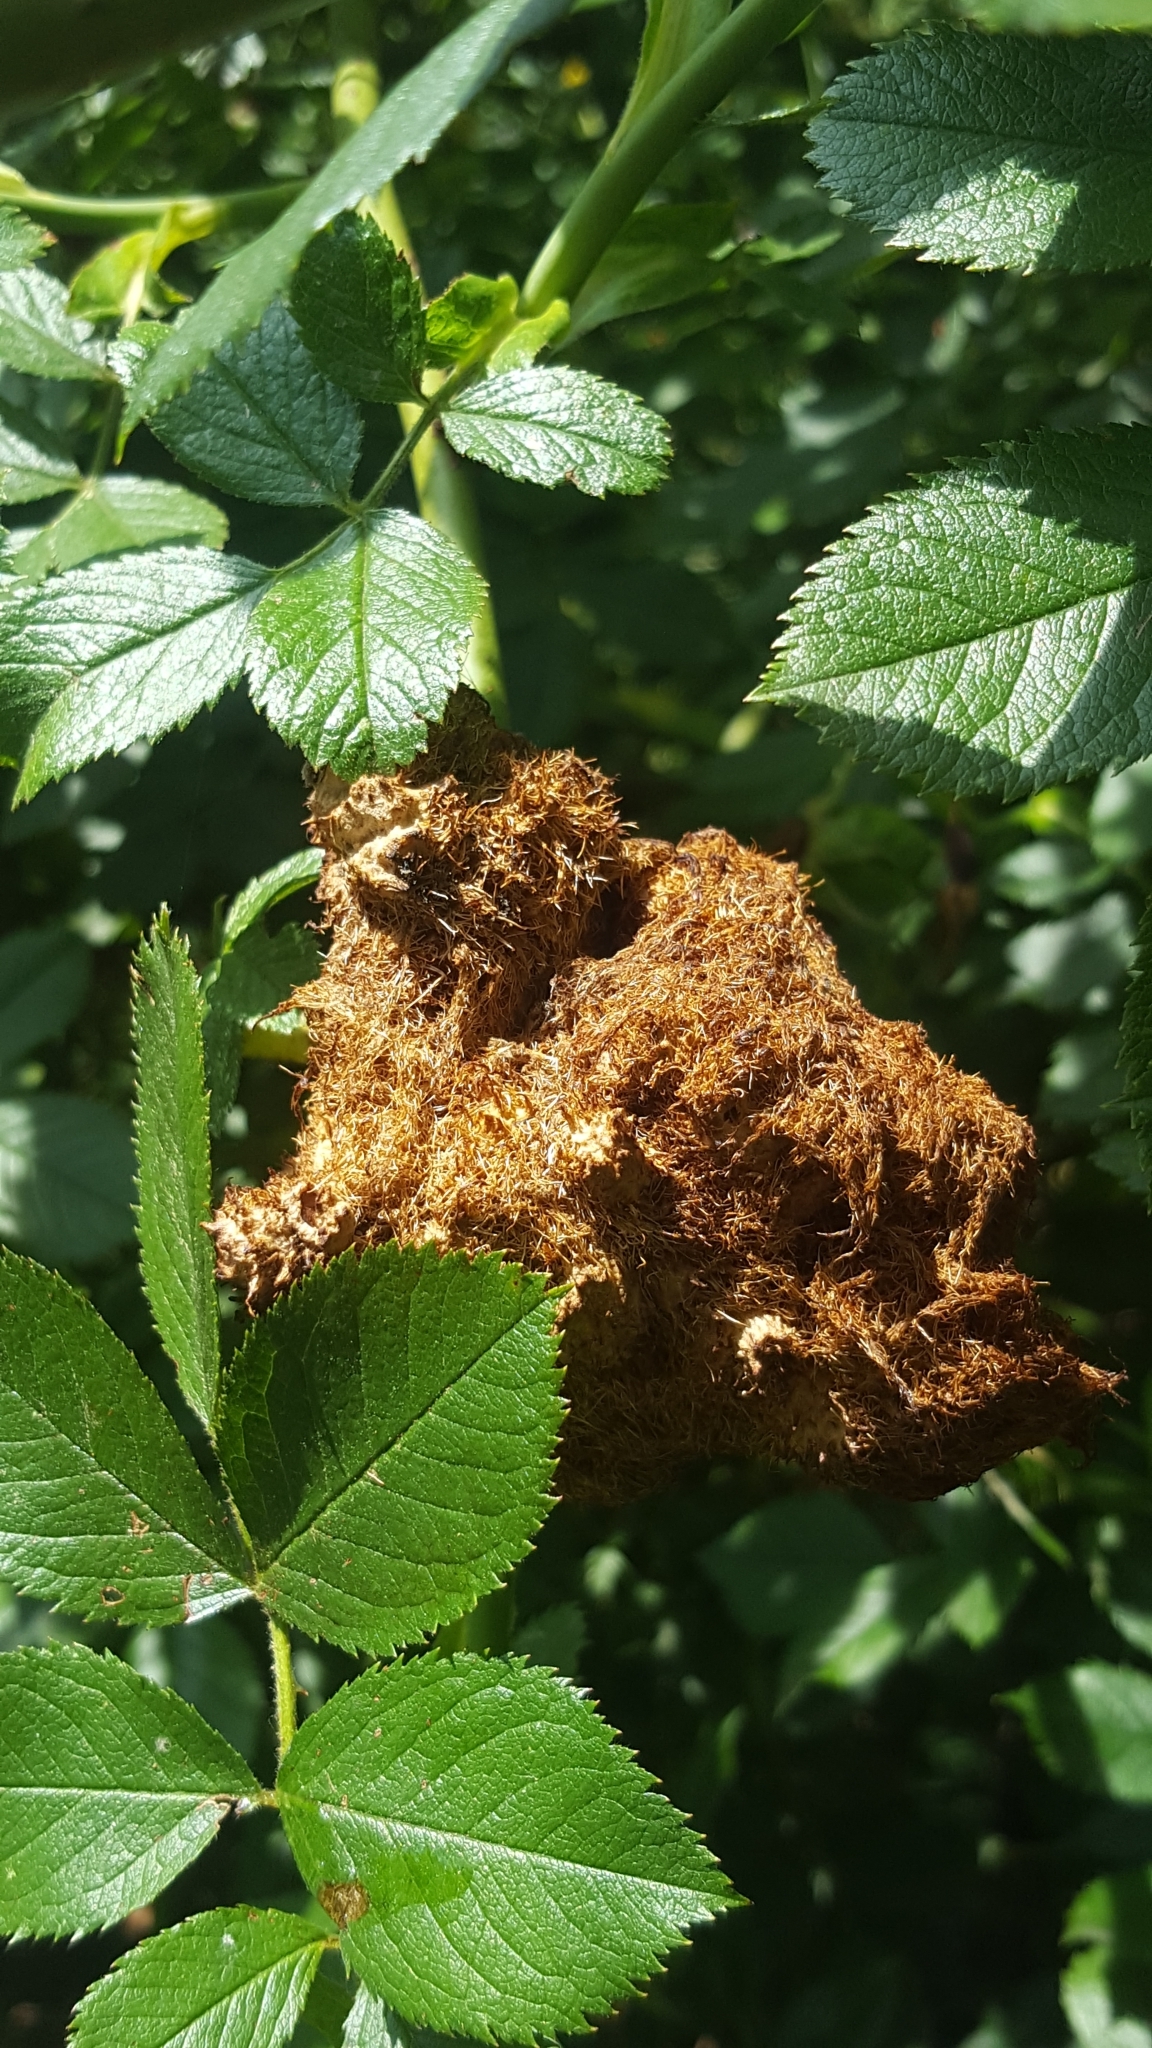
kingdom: Animalia
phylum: Arthropoda
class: Insecta
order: Hymenoptera
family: Cynipidae
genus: Diplolepis
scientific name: Diplolepis rosae
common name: Bedeguar gall
